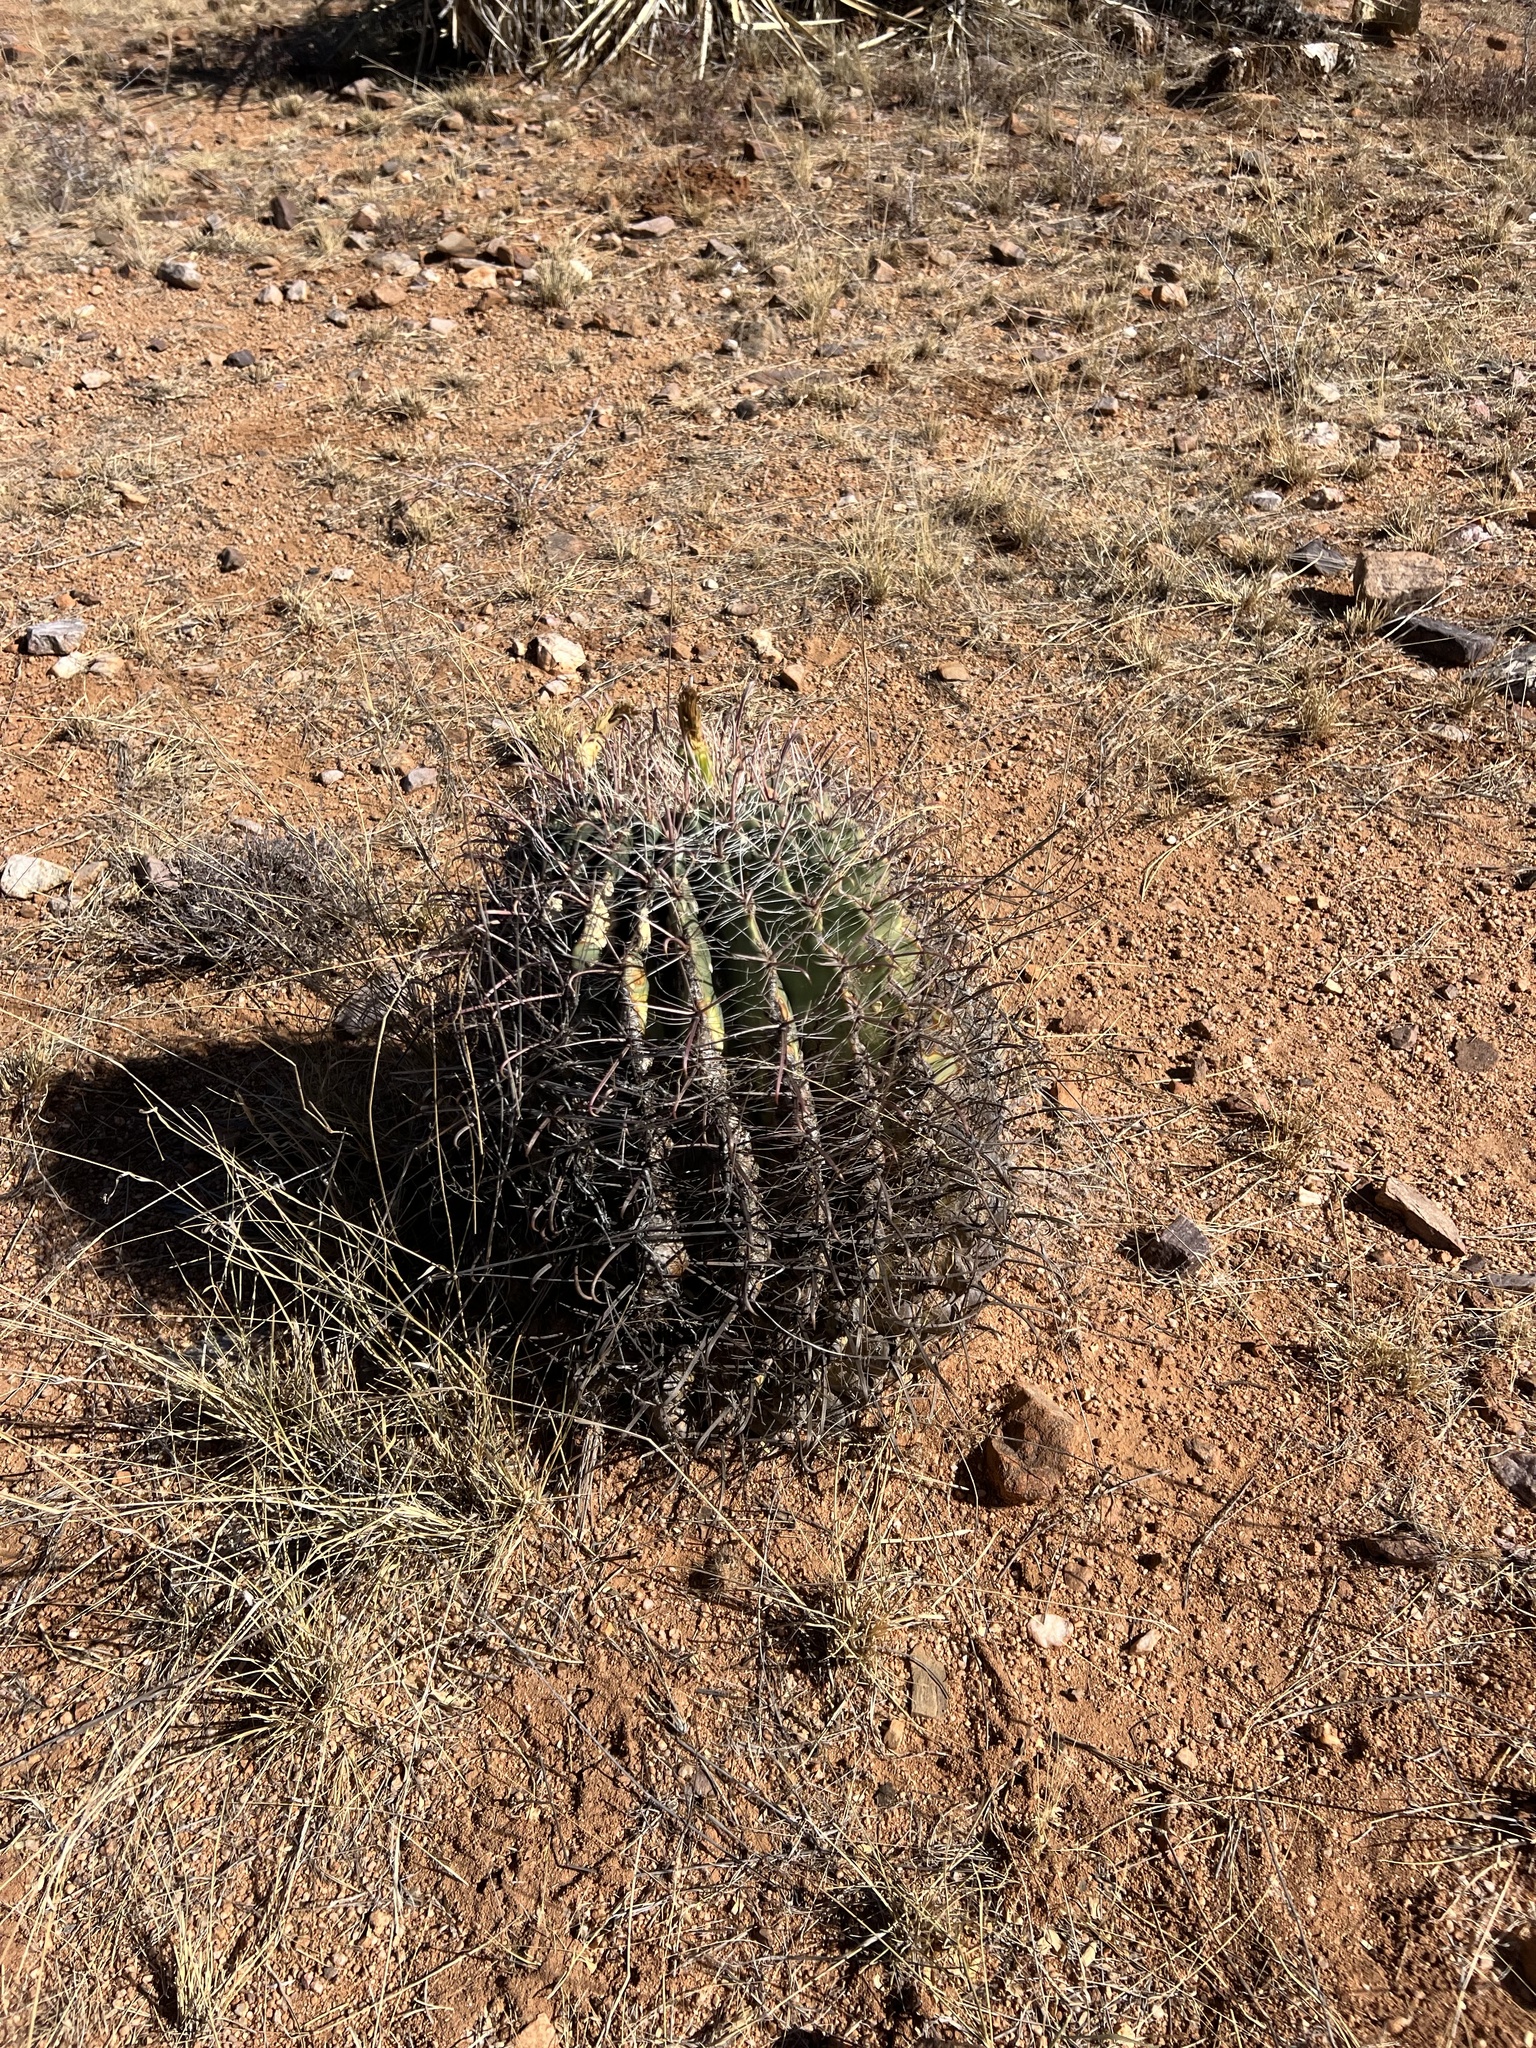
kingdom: Plantae
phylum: Tracheophyta
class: Magnoliopsida
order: Caryophyllales
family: Cactaceae
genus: Ferocactus
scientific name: Ferocactus wislizeni
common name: Candy barrel cactus
